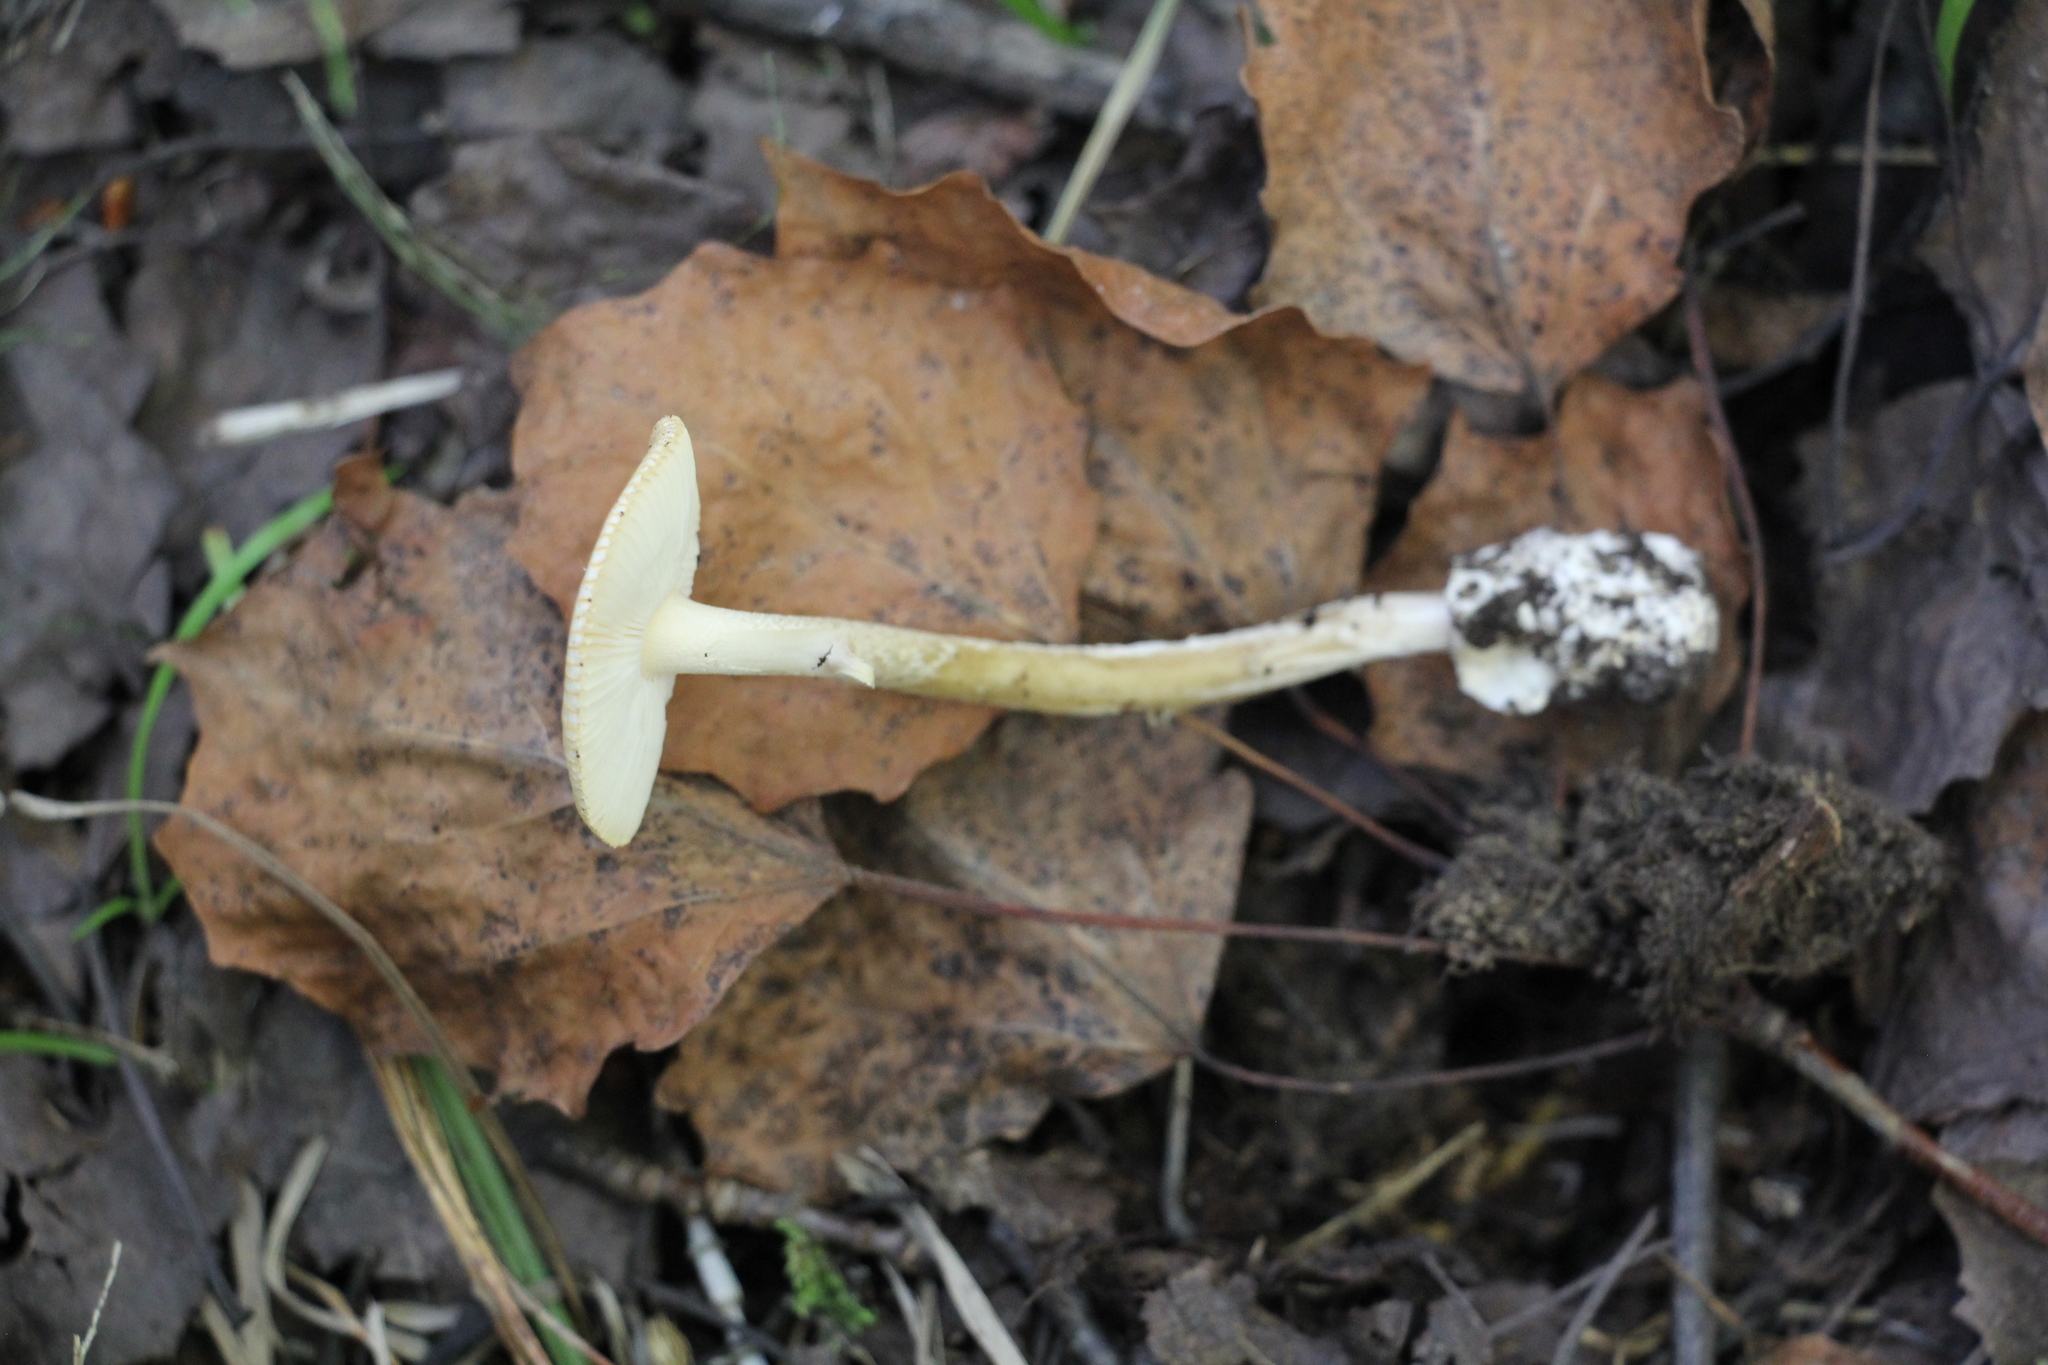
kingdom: Fungi
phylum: Basidiomycota
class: Agaricomycetes
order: Agaricales
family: Amanitaceae
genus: Amanita
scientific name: Amanita crocea
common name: Orange grisette
